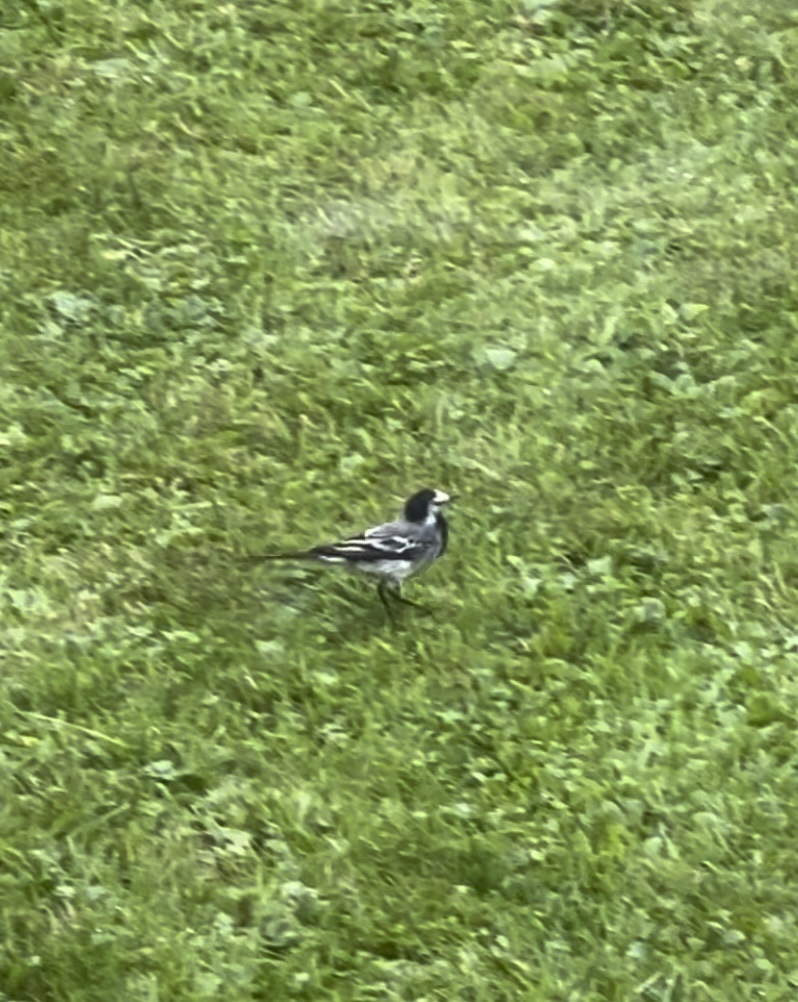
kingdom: Animalia
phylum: Chordata
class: Aves
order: Passeriformes
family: Motacillidae
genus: Motacilla
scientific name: Motacilla alba
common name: White wagtail
